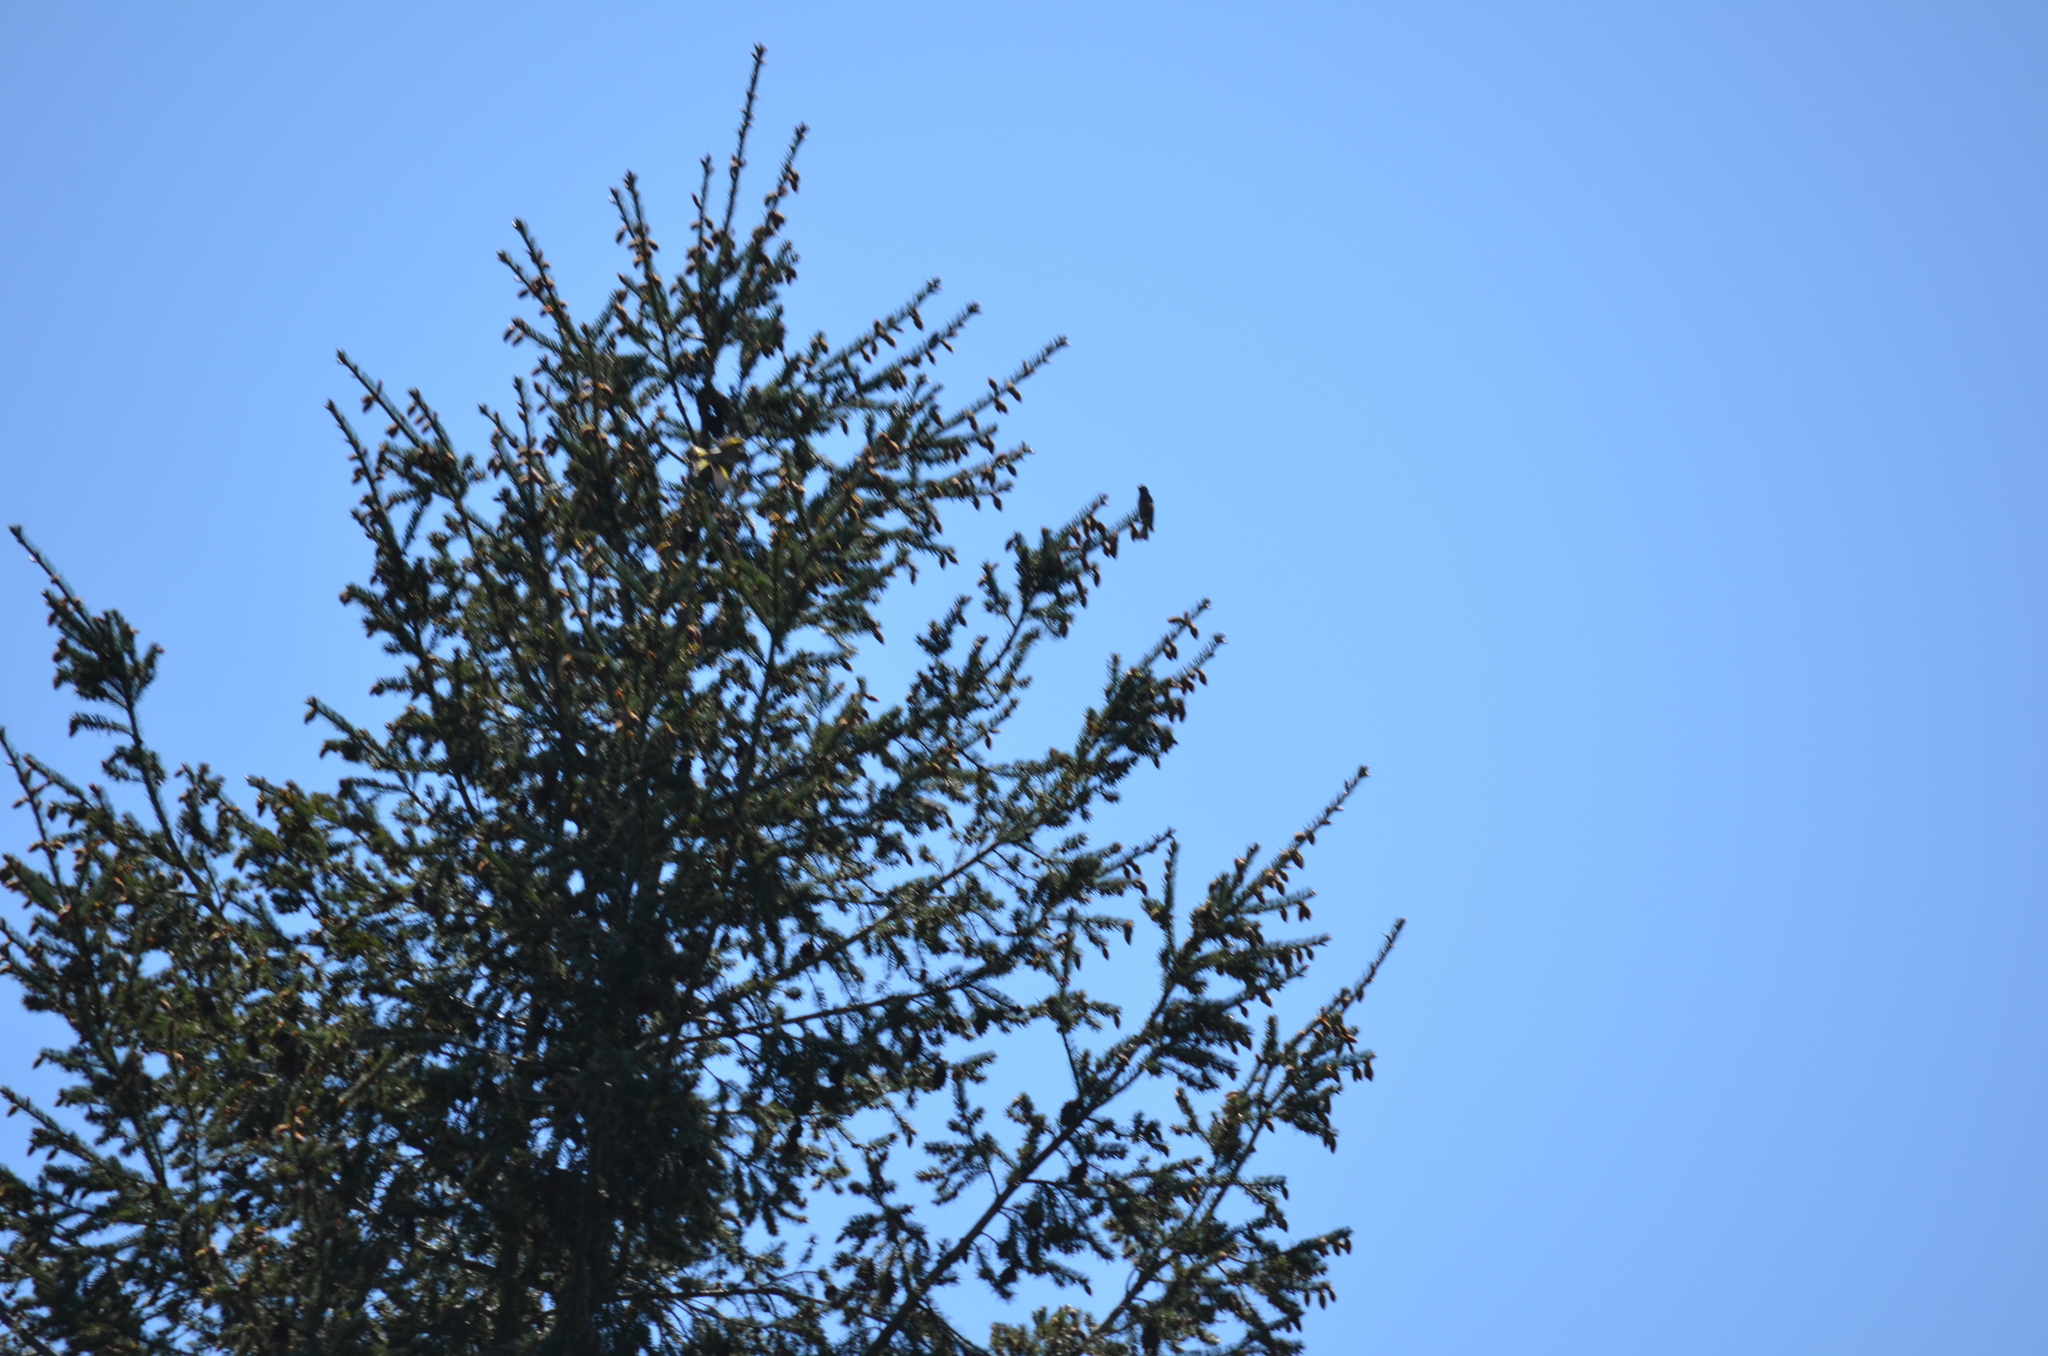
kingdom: Animalia
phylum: Chordata
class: Aves
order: Passeriformes
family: Fringillidae
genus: Spinus
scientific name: Spinus pinus
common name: Pine siskin
